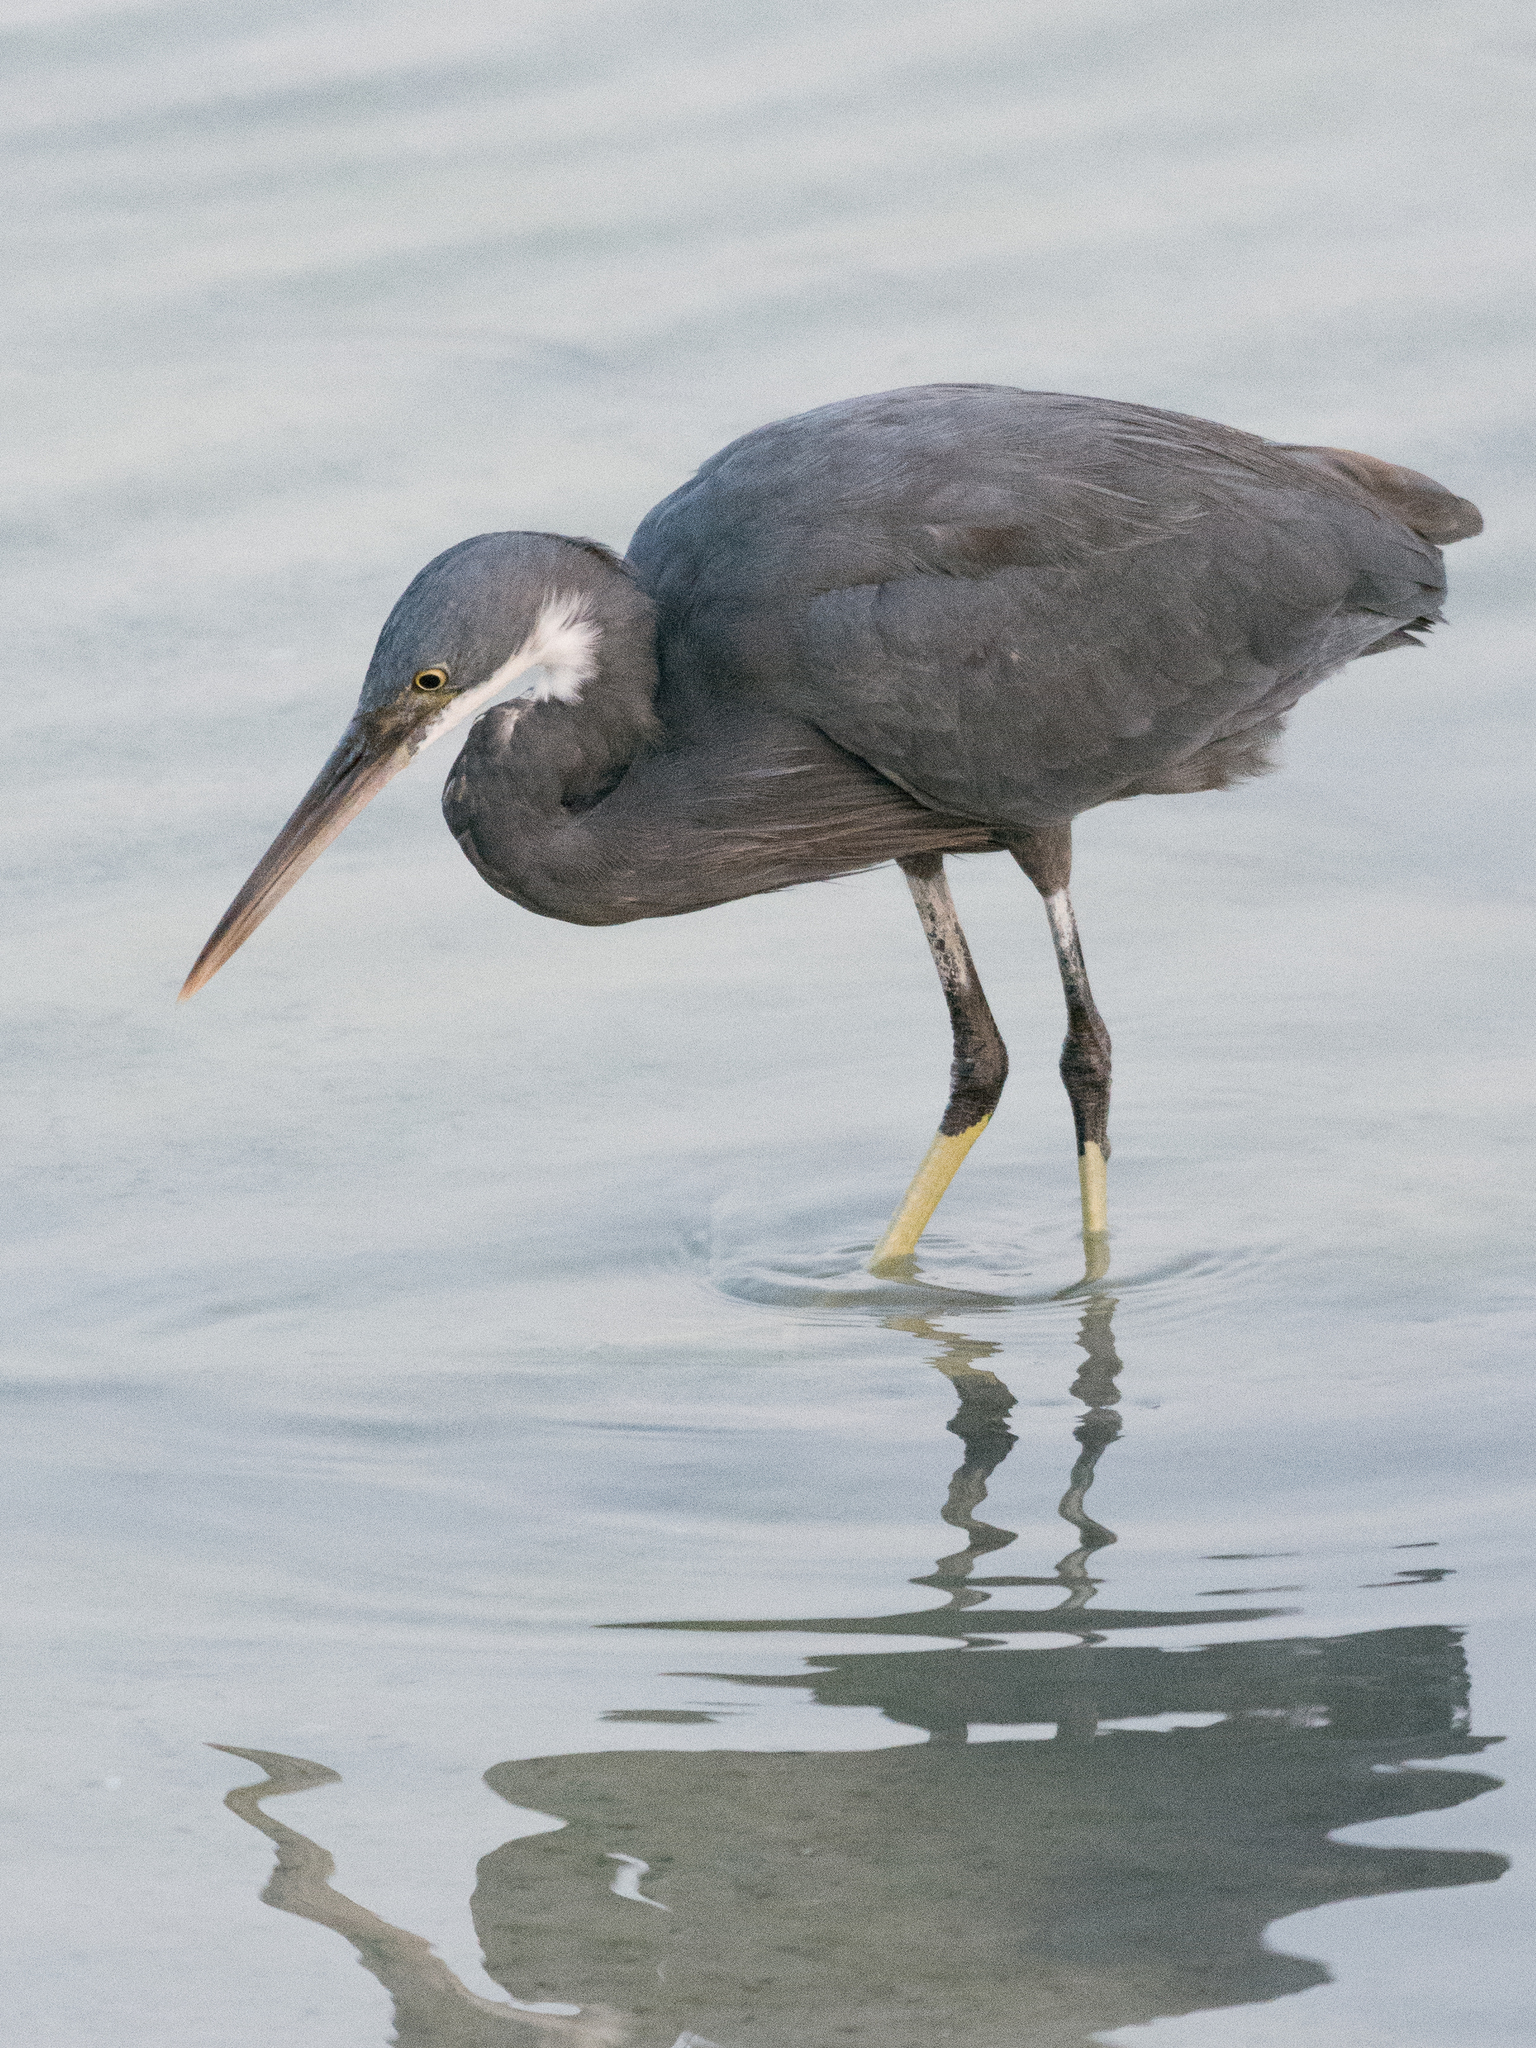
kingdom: Animalia
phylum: Chordata
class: Aves
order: Pelecaniformes
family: Ardeidae
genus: Egretta
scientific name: Egretta gularis
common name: Western reef-heron
